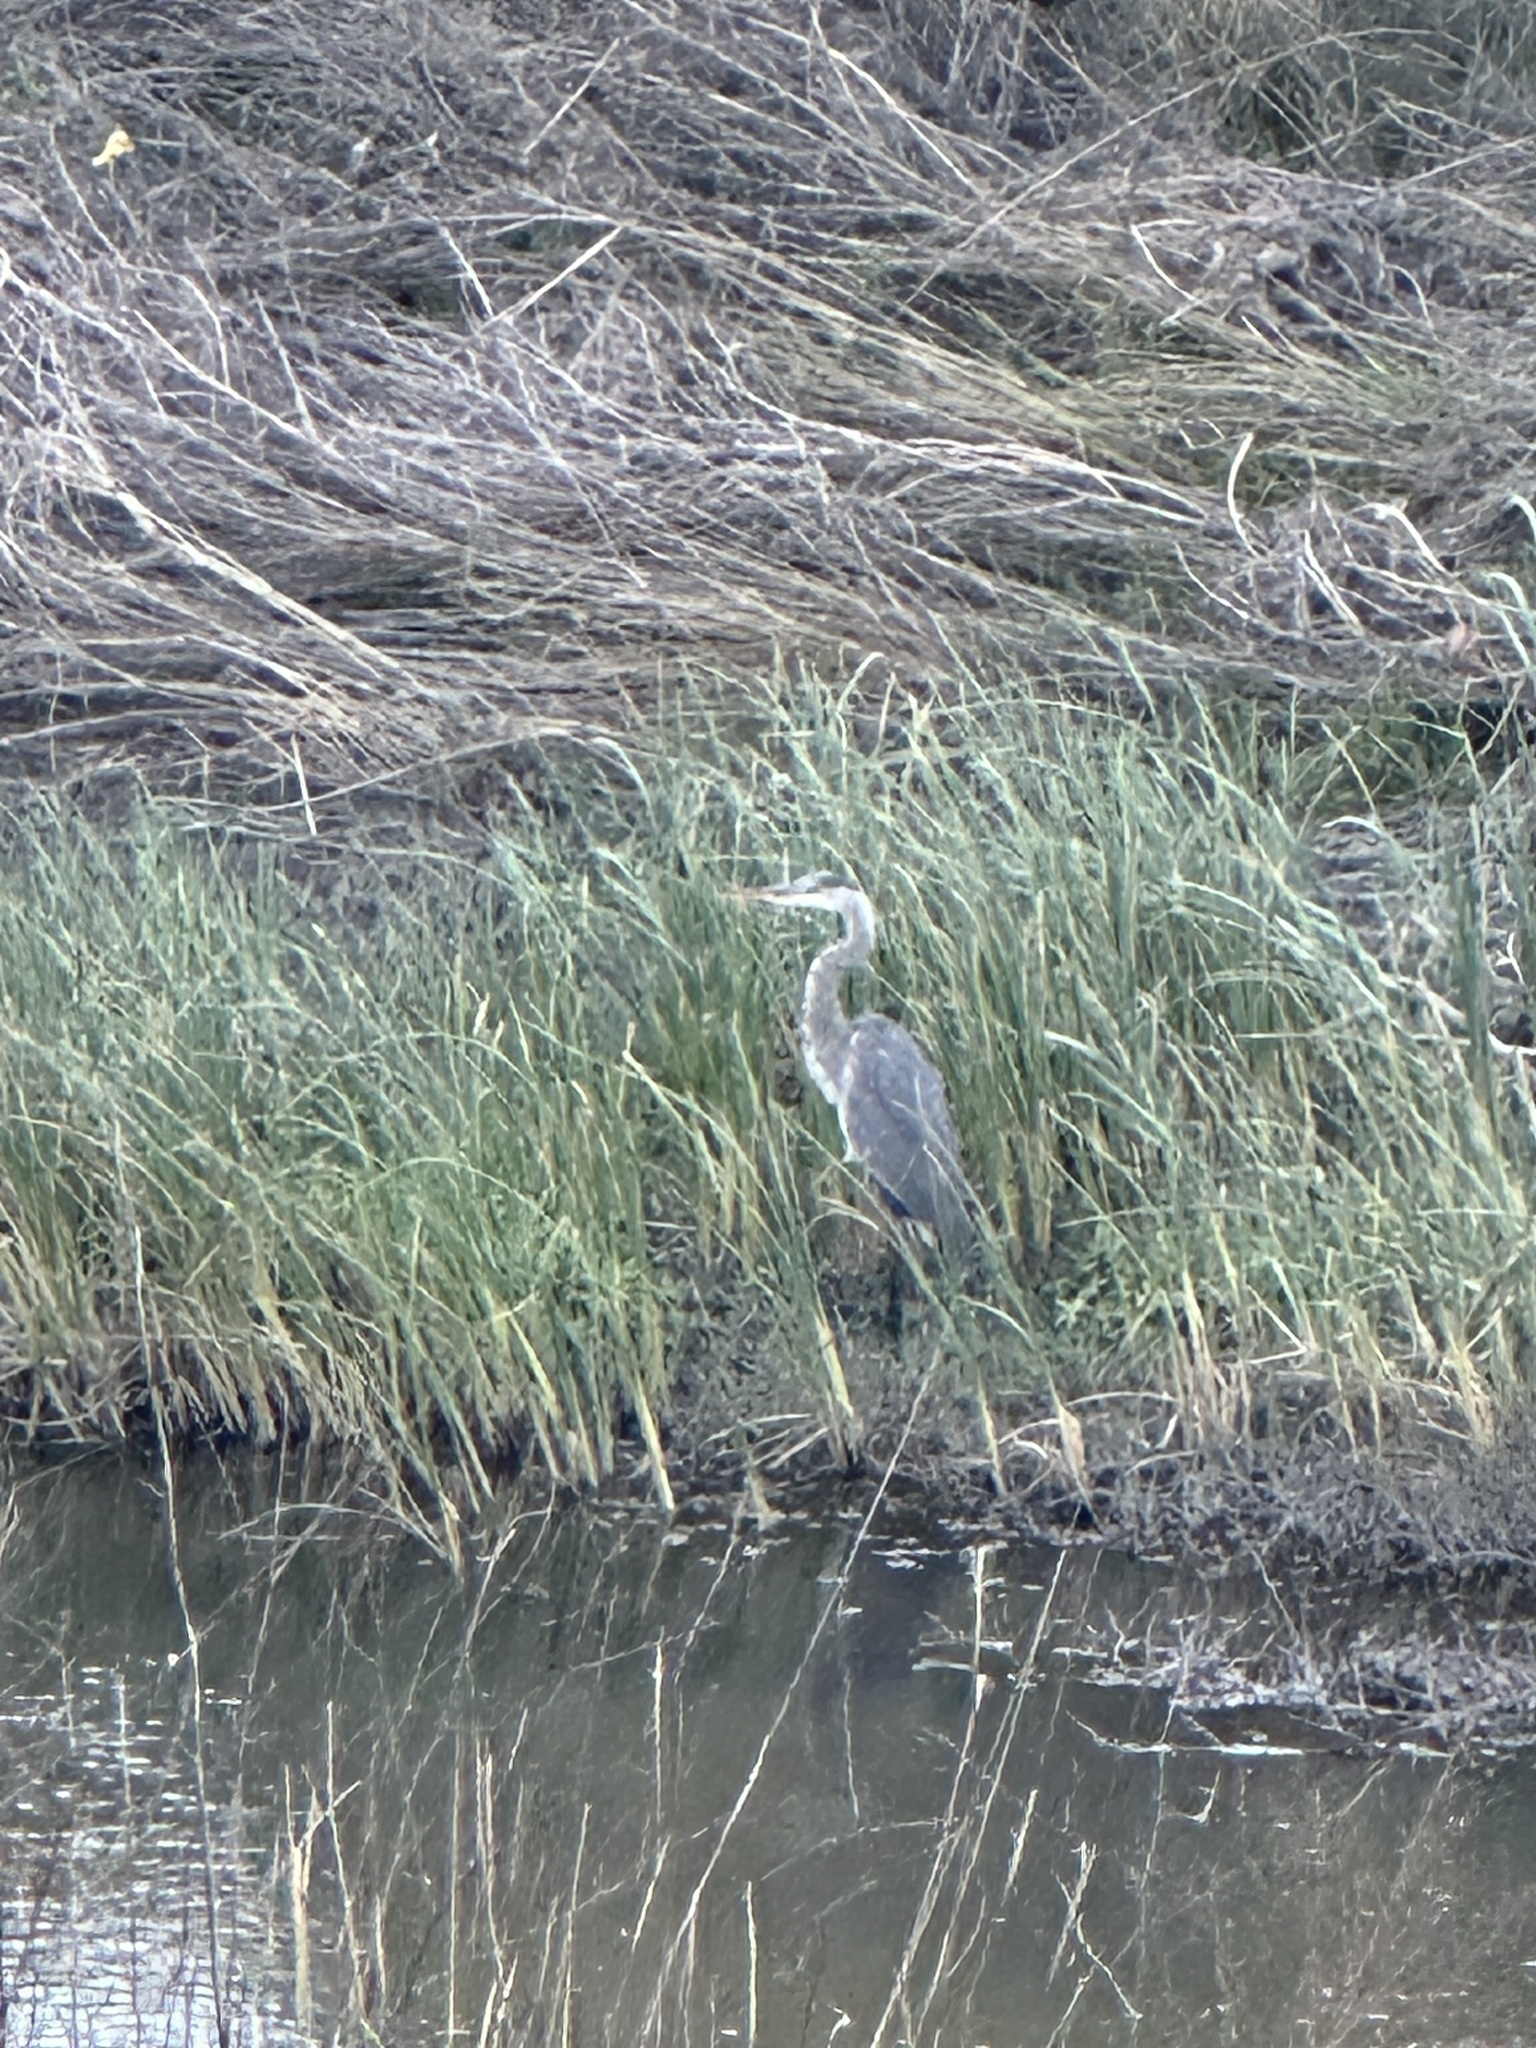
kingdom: Animalia
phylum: Chordata
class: Aves
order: Pelecaniformes
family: Ardeidae
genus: Ardea
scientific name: Ardea herodias
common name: Great blue heron
